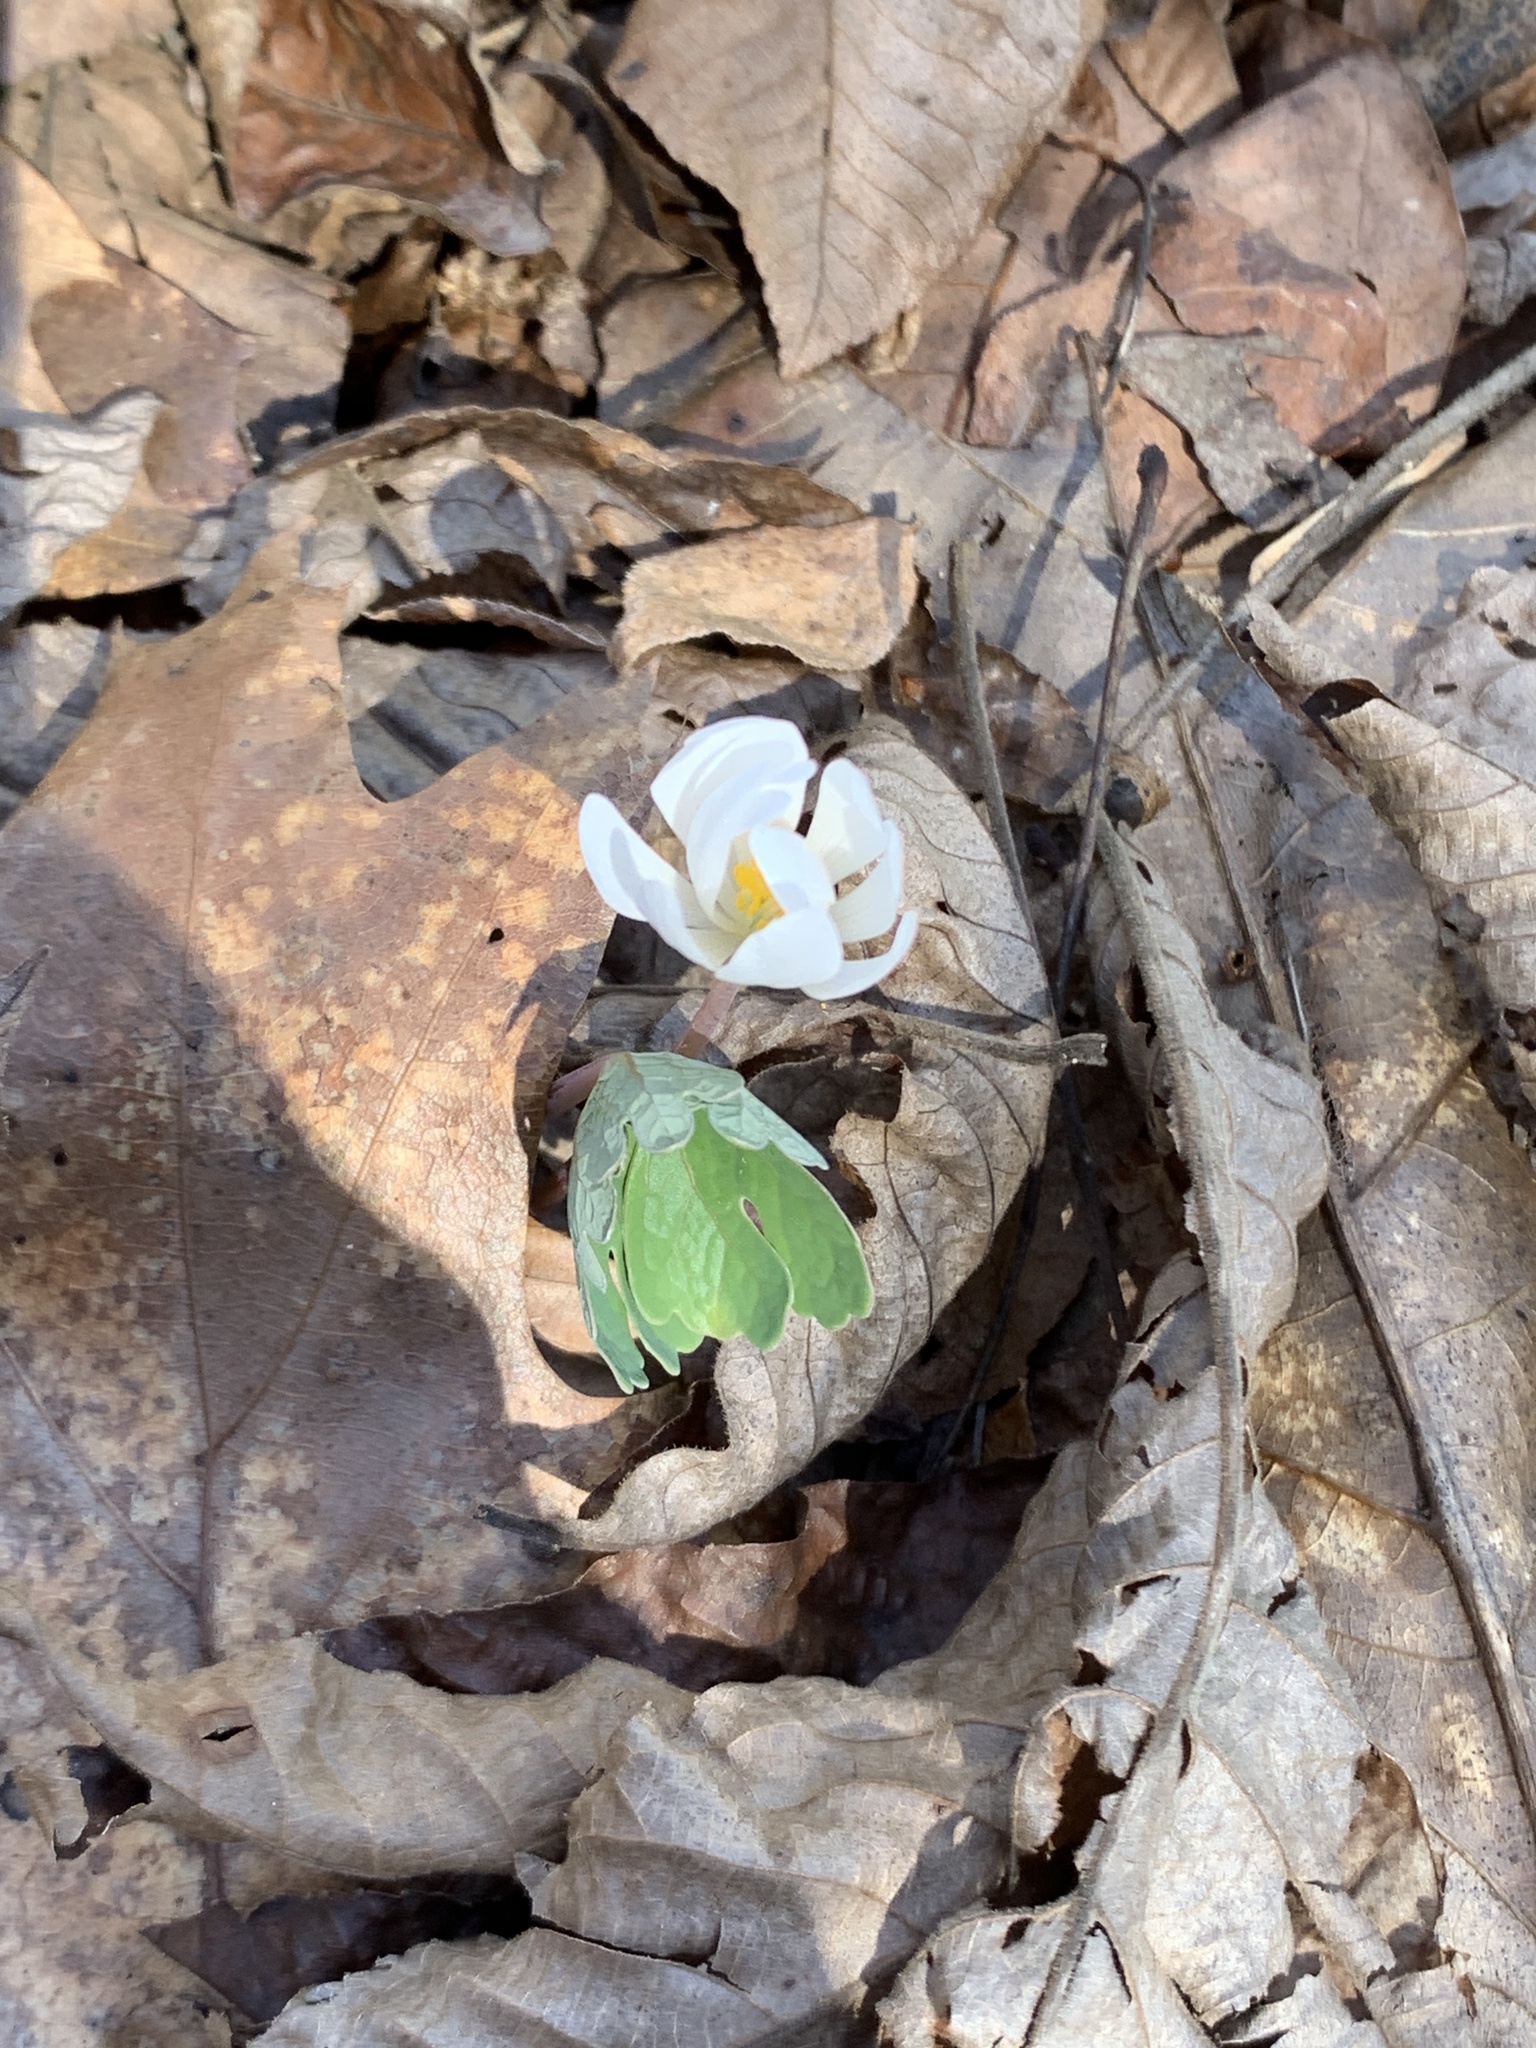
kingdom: Plantae
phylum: Tracheophyta
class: Magnoliopsida
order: Ranunculales
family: Papaveraceae
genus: Sanguinaria
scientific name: Sanguinaria canadensis
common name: Bloodroot
